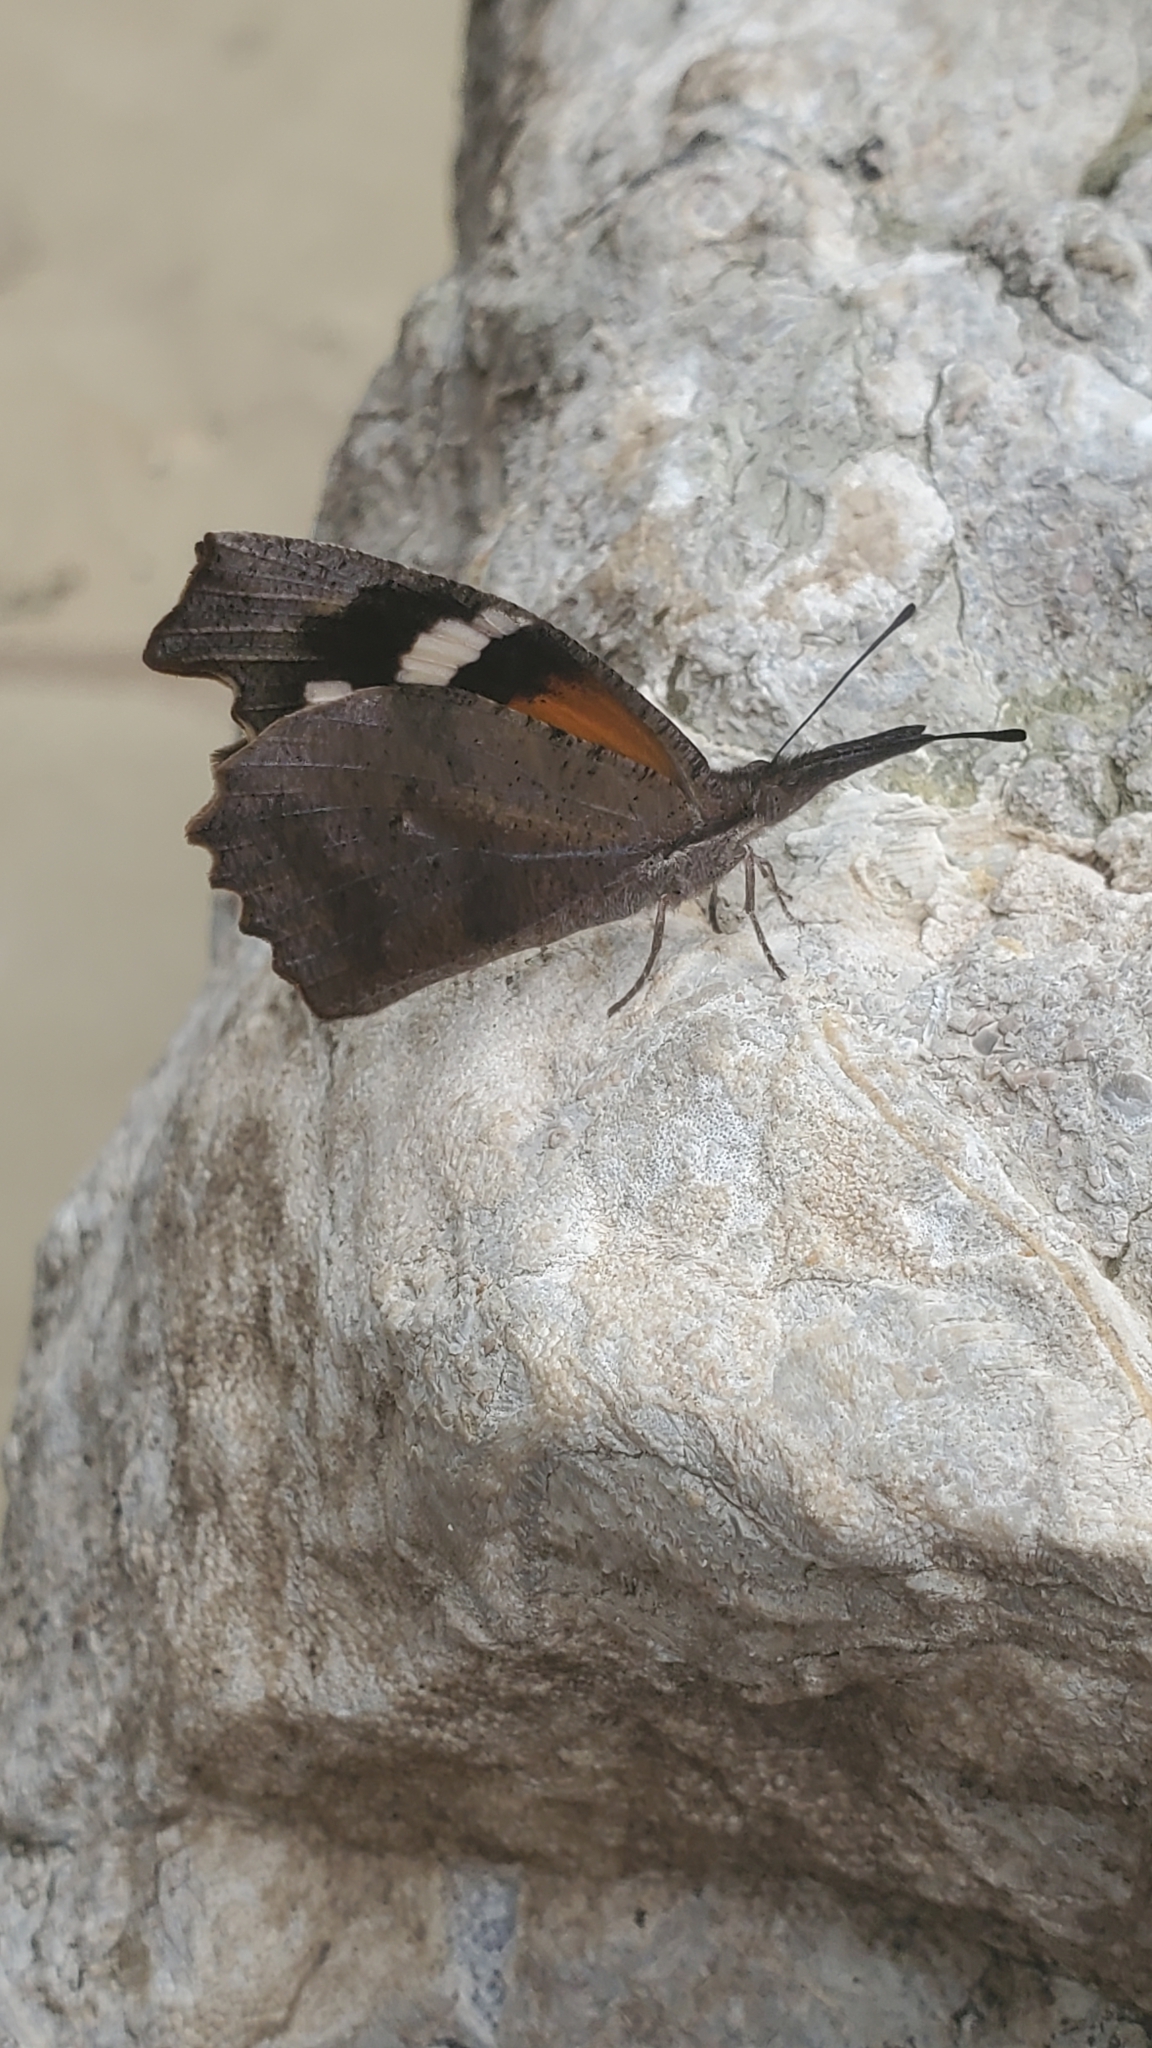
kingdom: Animalia
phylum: Arthropoda
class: Insecta
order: Lepidoptera
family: Nymphalidae
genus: Libytheana
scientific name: Libytheana carinenta
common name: American snout
